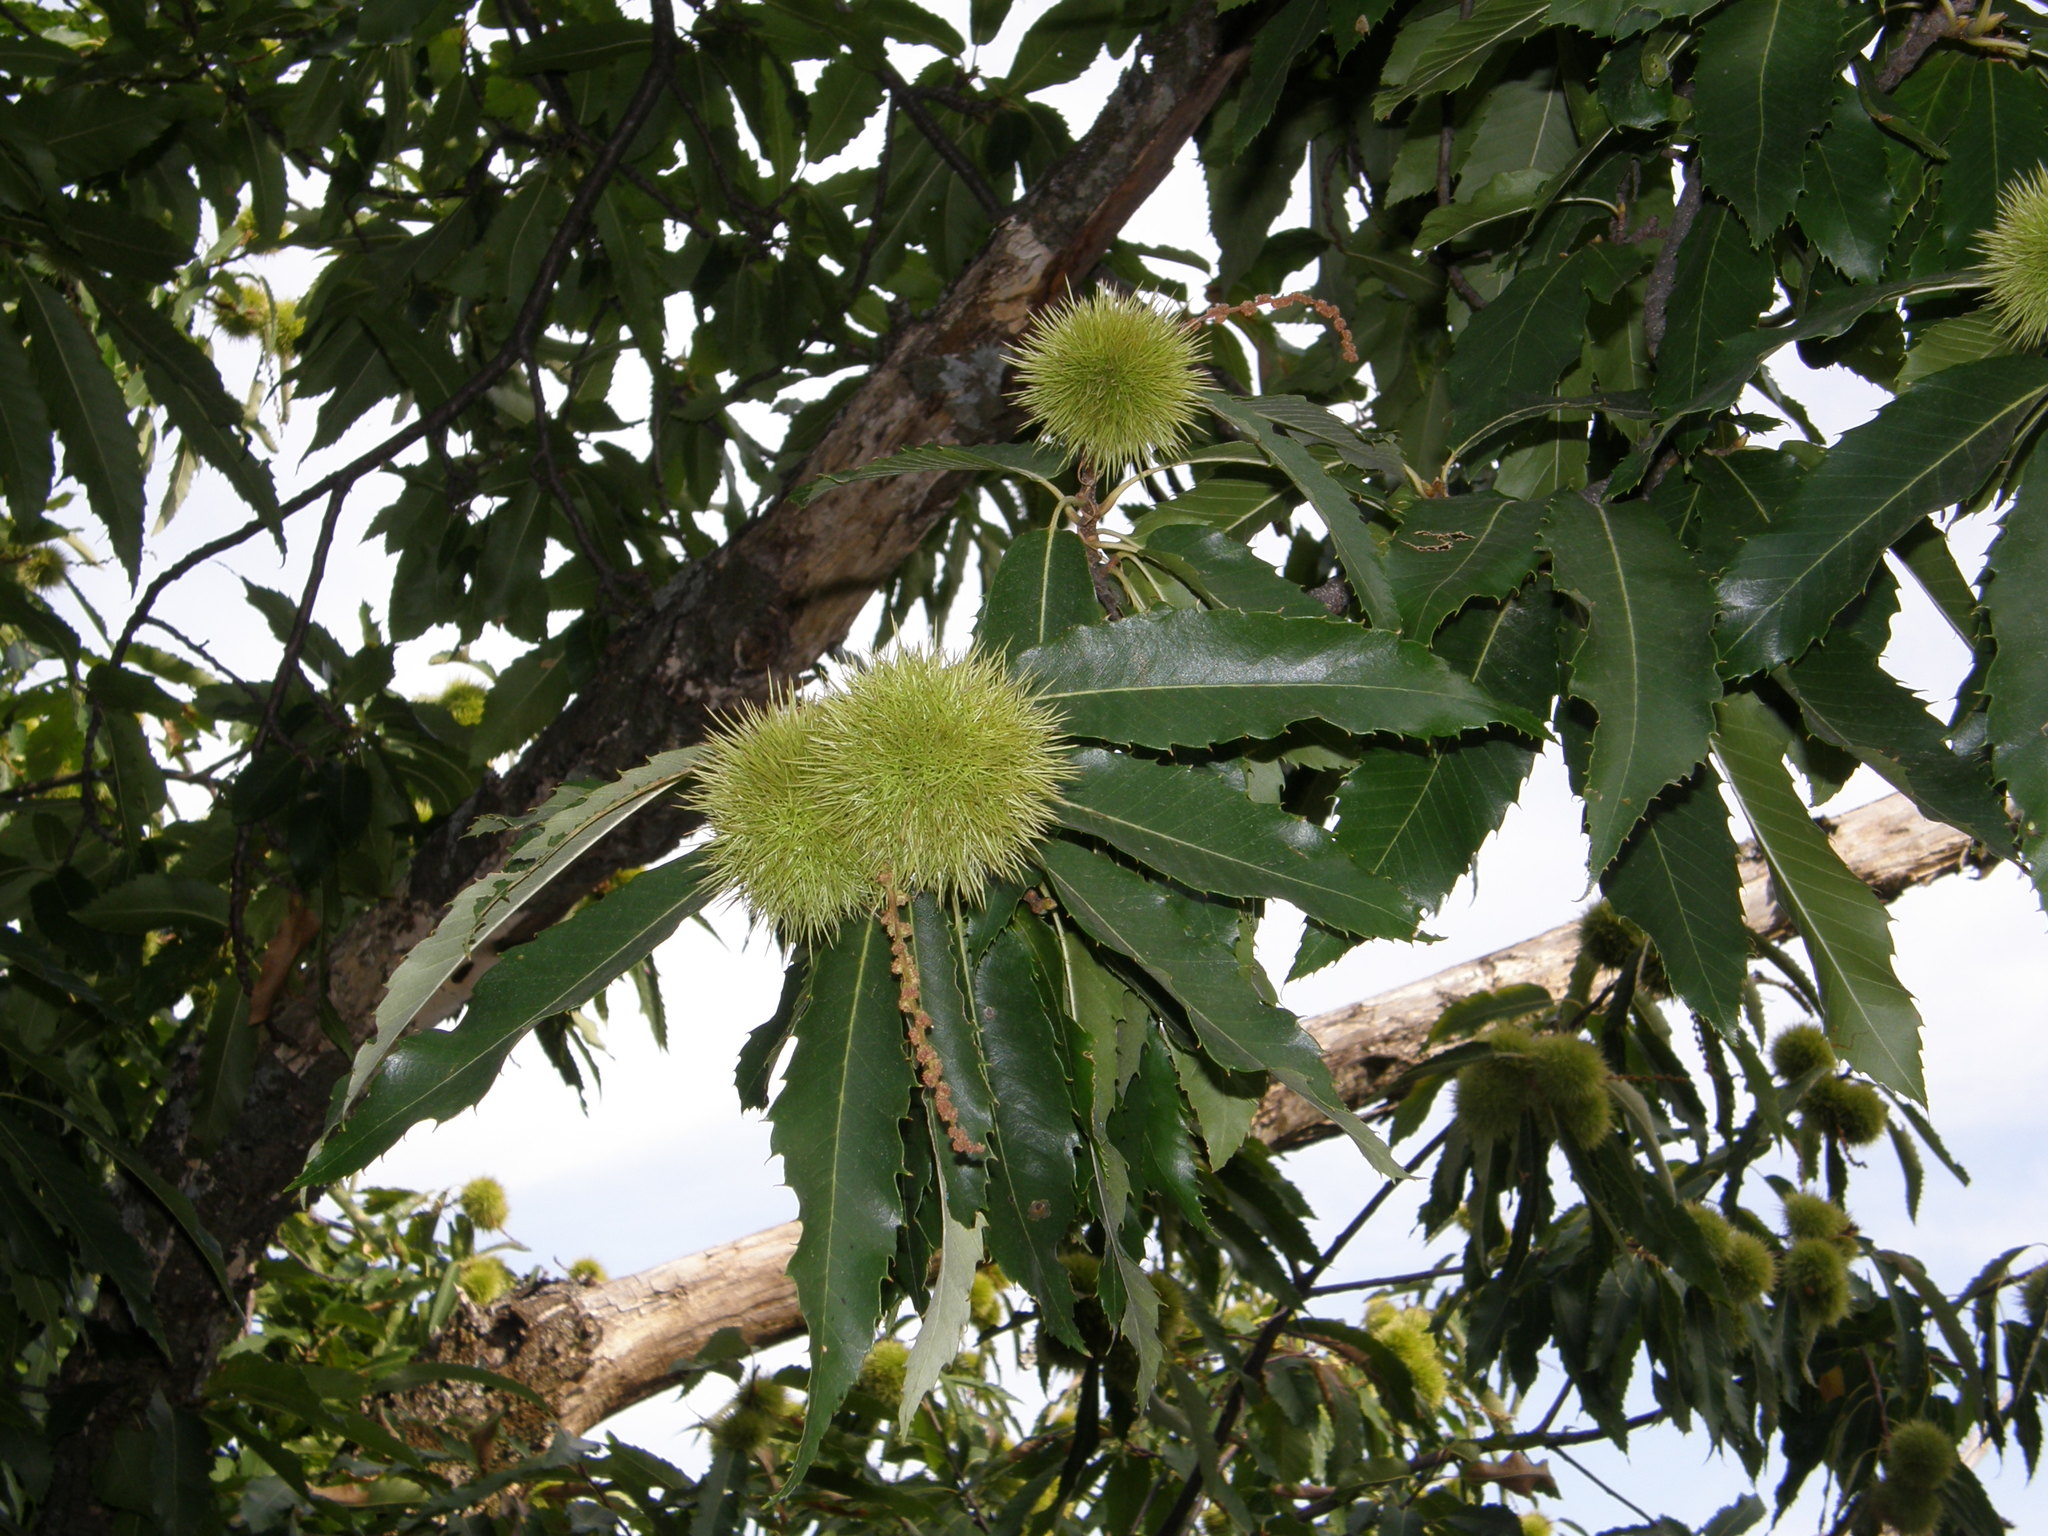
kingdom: Plantae
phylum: Tracheophyta
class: Magnoliopsida
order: Fagales
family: Fagaceae
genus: Castanea
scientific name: Castanea sativa
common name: Sweet chestnut
